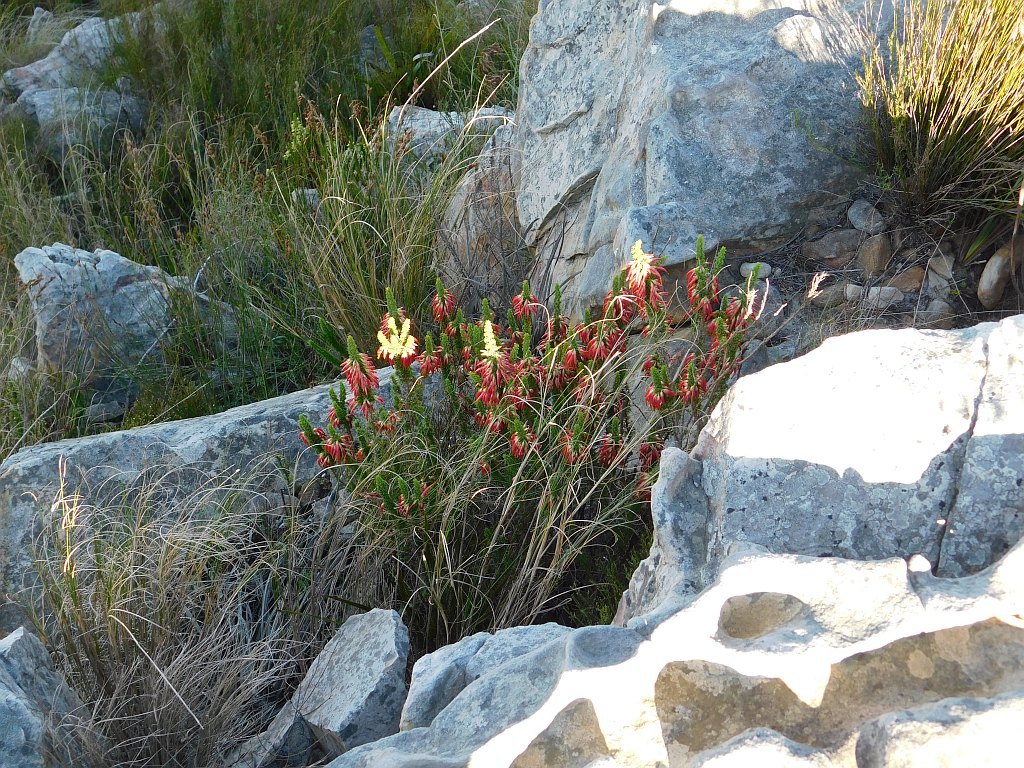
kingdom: Plantae
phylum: Tracheophyta
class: Magnoliopsida
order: Ericales
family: Ericaceae
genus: Erica
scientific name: Erica coccinea
